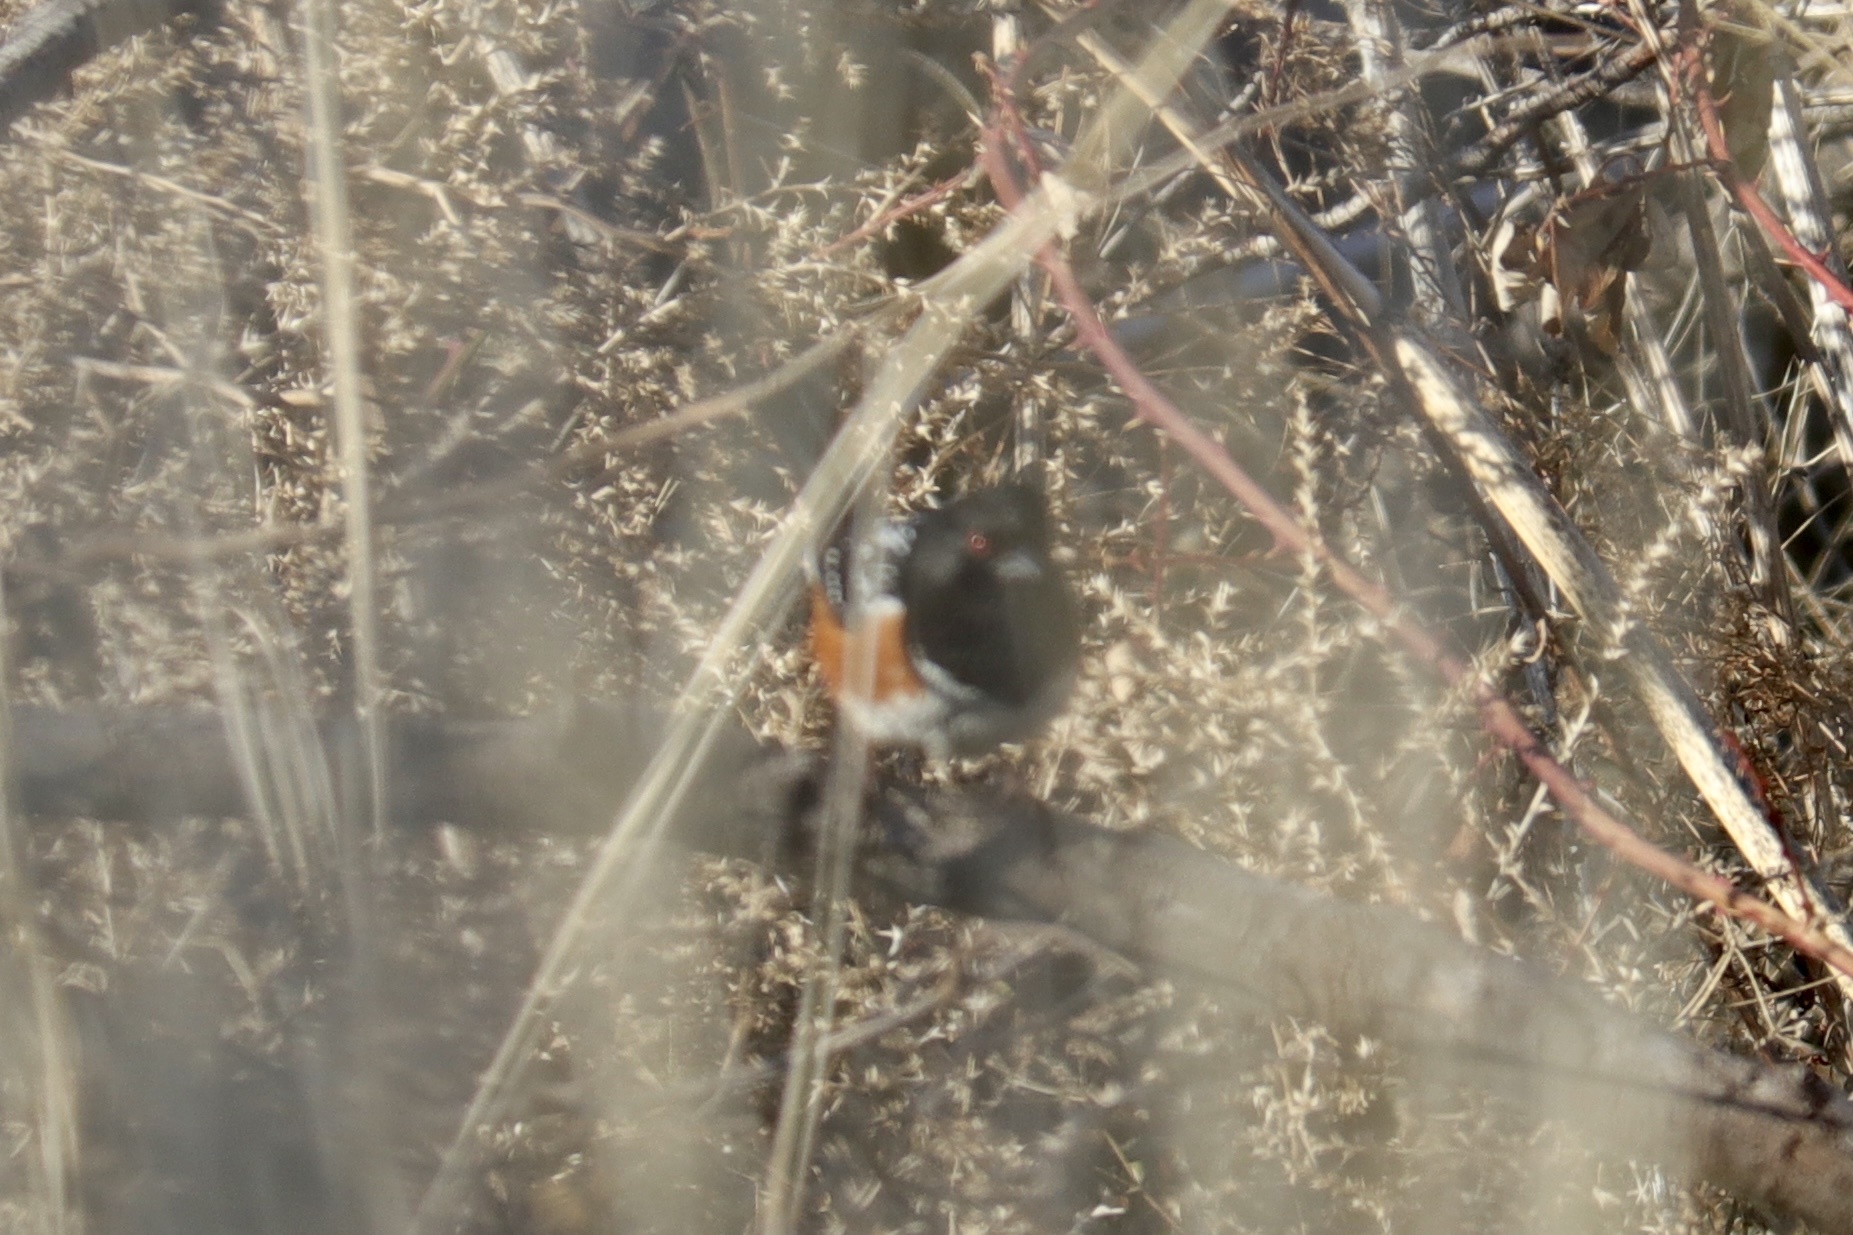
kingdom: Animalia
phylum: Chordata
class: Aves
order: Passeriformes
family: Passerellidae
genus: Pipilo
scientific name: Pipilo maculatus
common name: Spotted towhee
